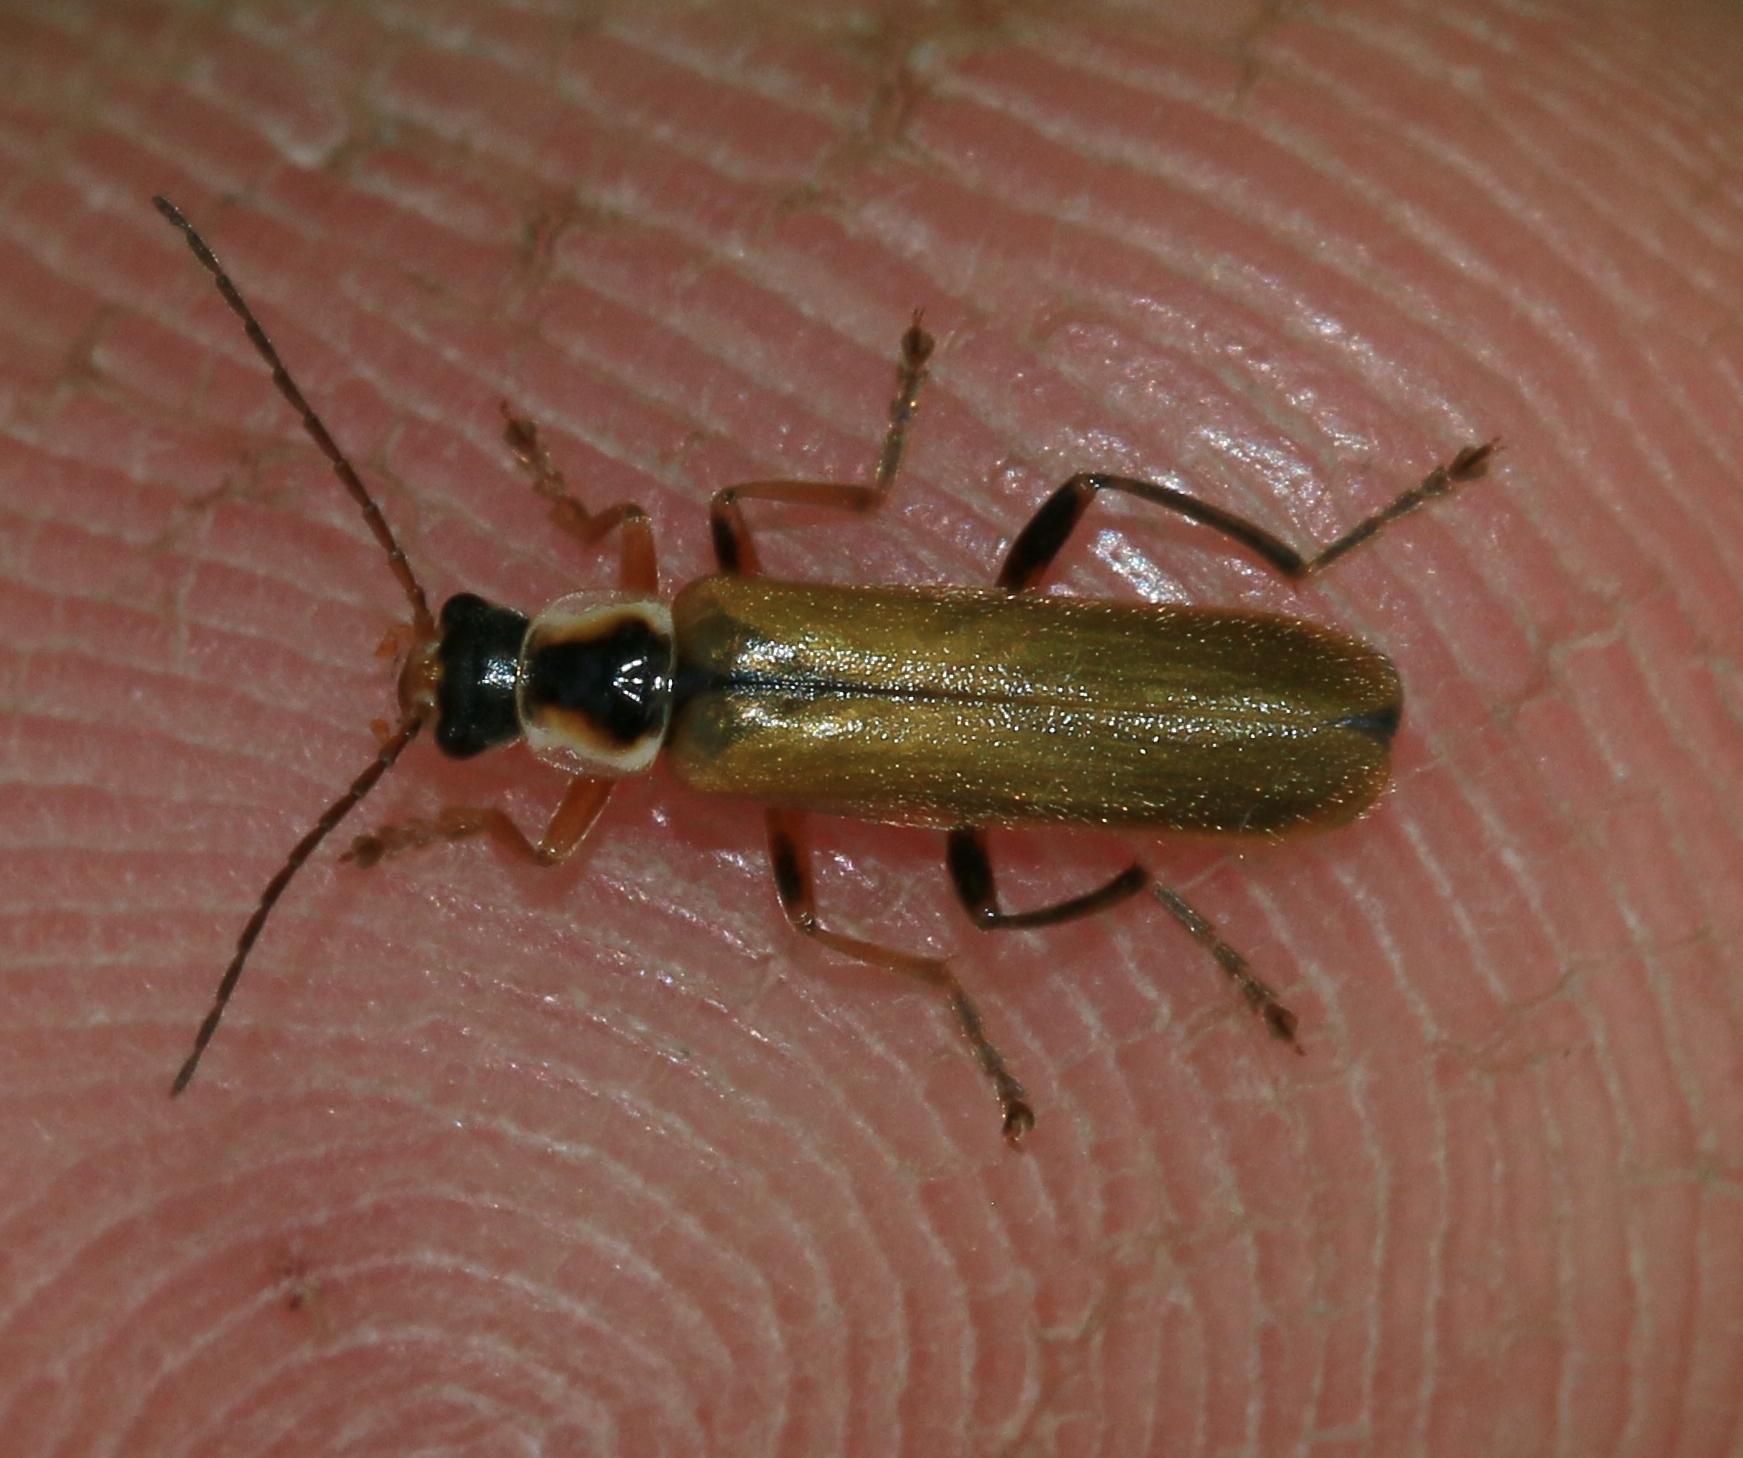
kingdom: Animalia
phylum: Arthropoda
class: Insecta
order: Coleoptera
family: Cantharidae
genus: Cantharis
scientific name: Cantharis decipiens
